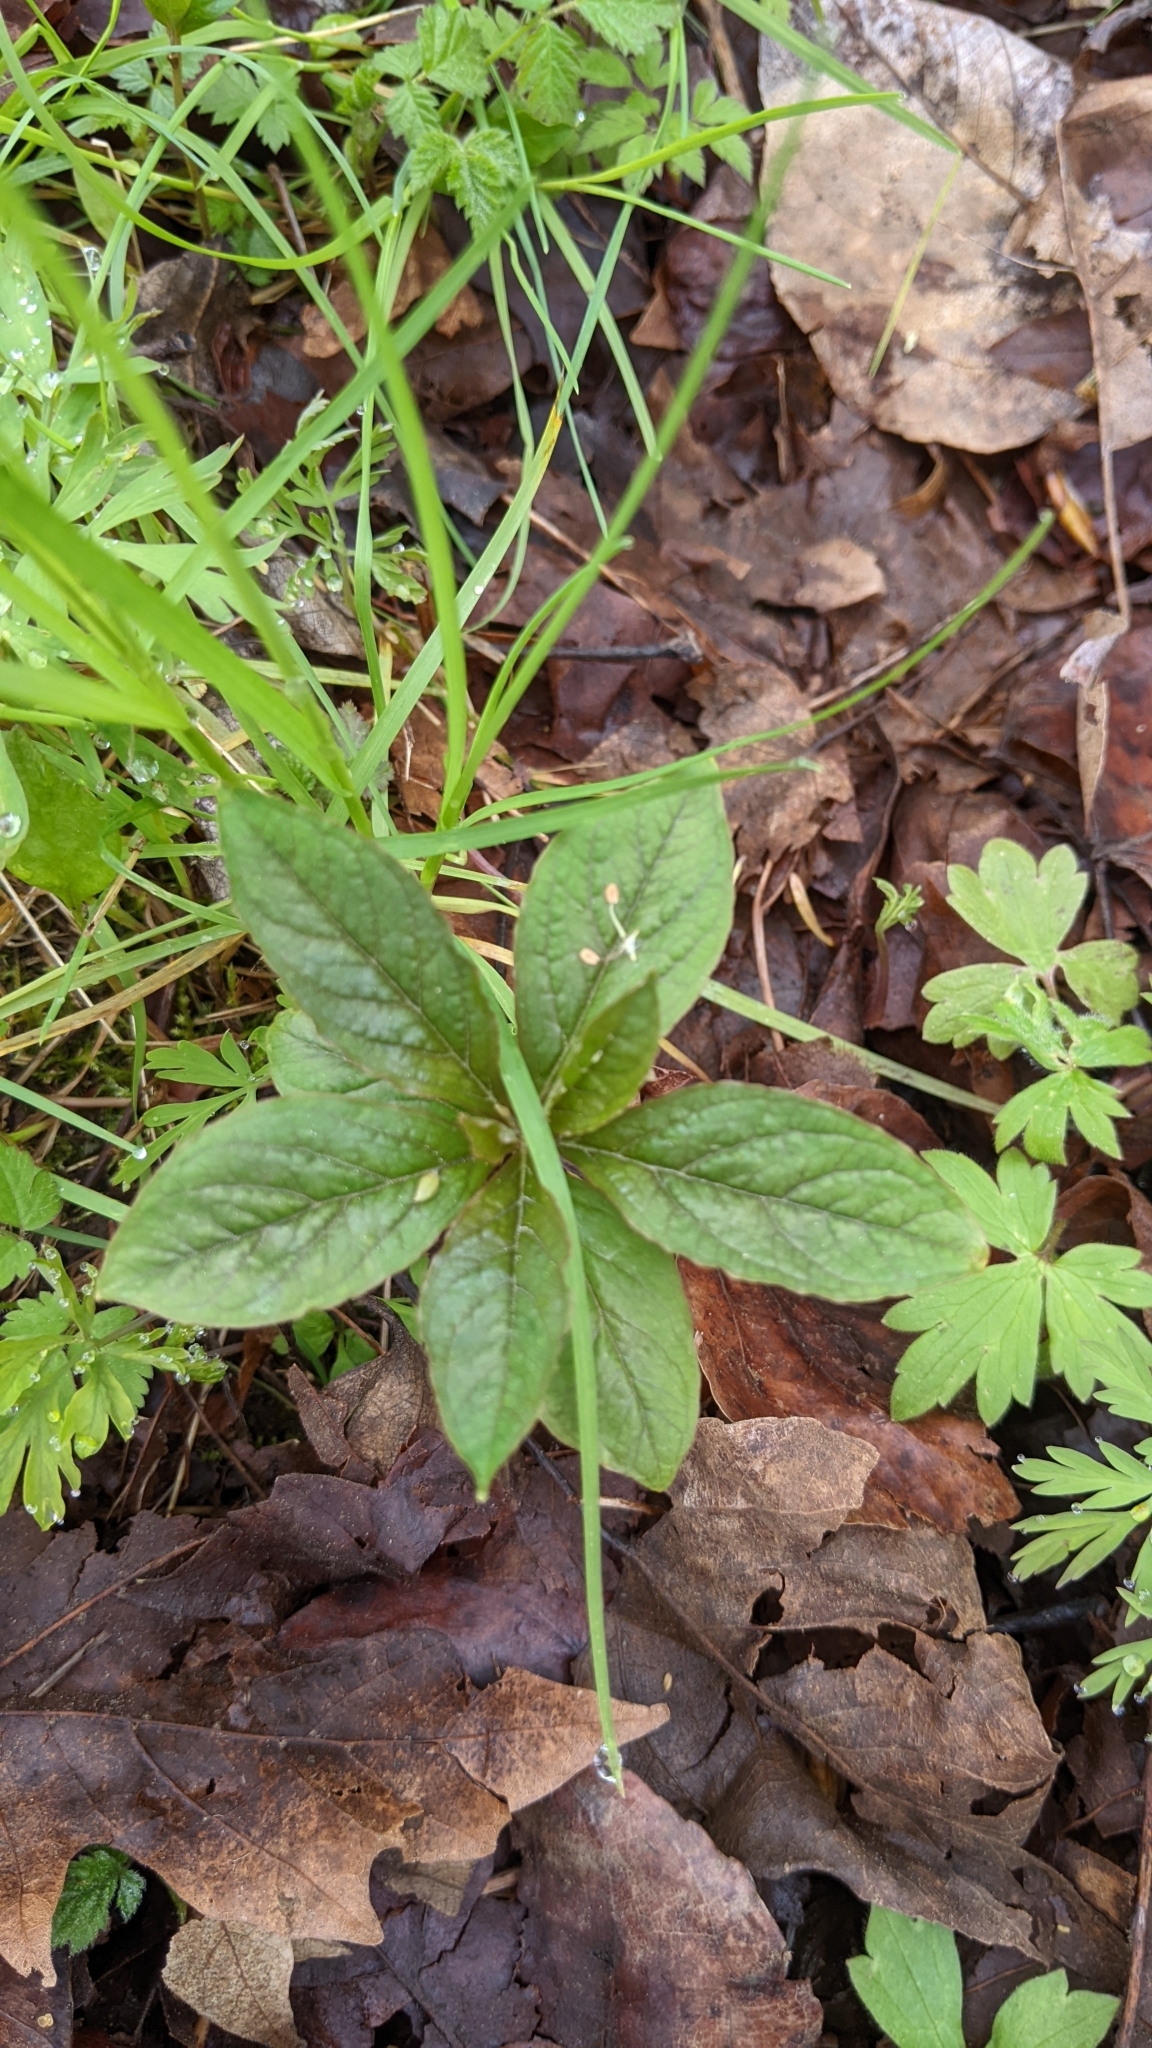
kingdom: Plantae
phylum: Tracheophyta
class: Magnoliopsida
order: Ericales
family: Primulaceae
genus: Lysimachia
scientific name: Lysimachia latifolia
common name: Pacific starflower
